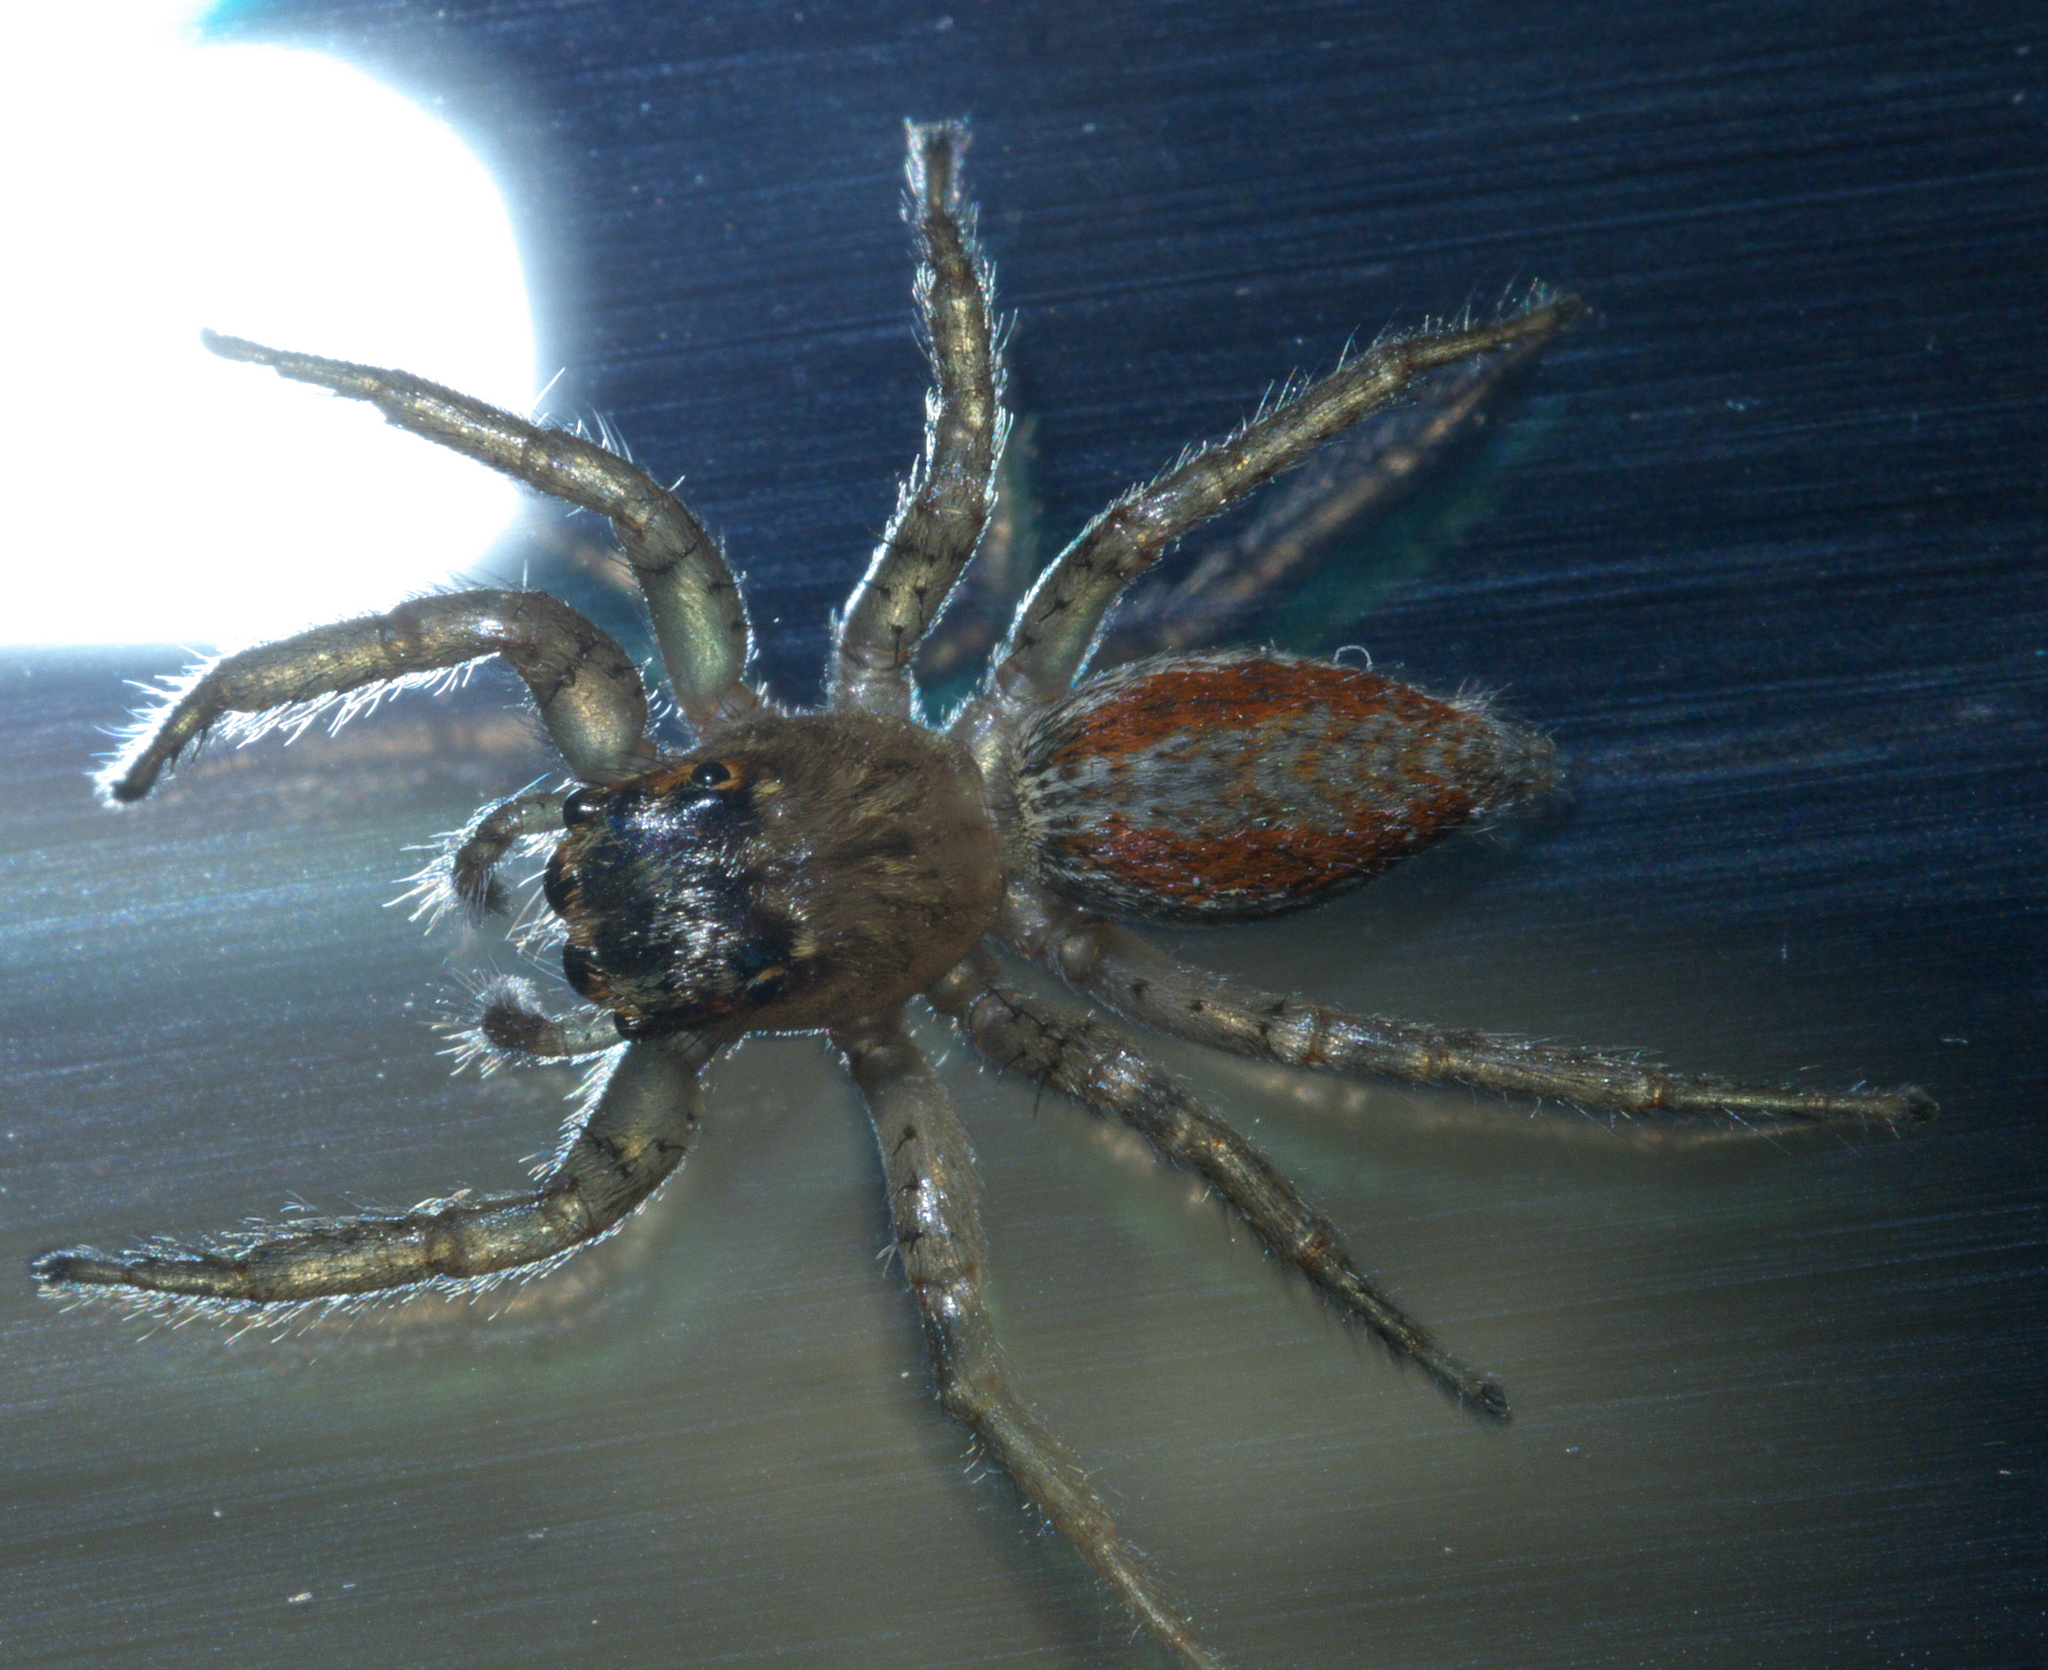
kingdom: Animalia
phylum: Arthropoda
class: Arachnida
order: Araneae
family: Salticidae
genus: Maevia
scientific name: Maevia inclemens
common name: Dimorphic jumper
